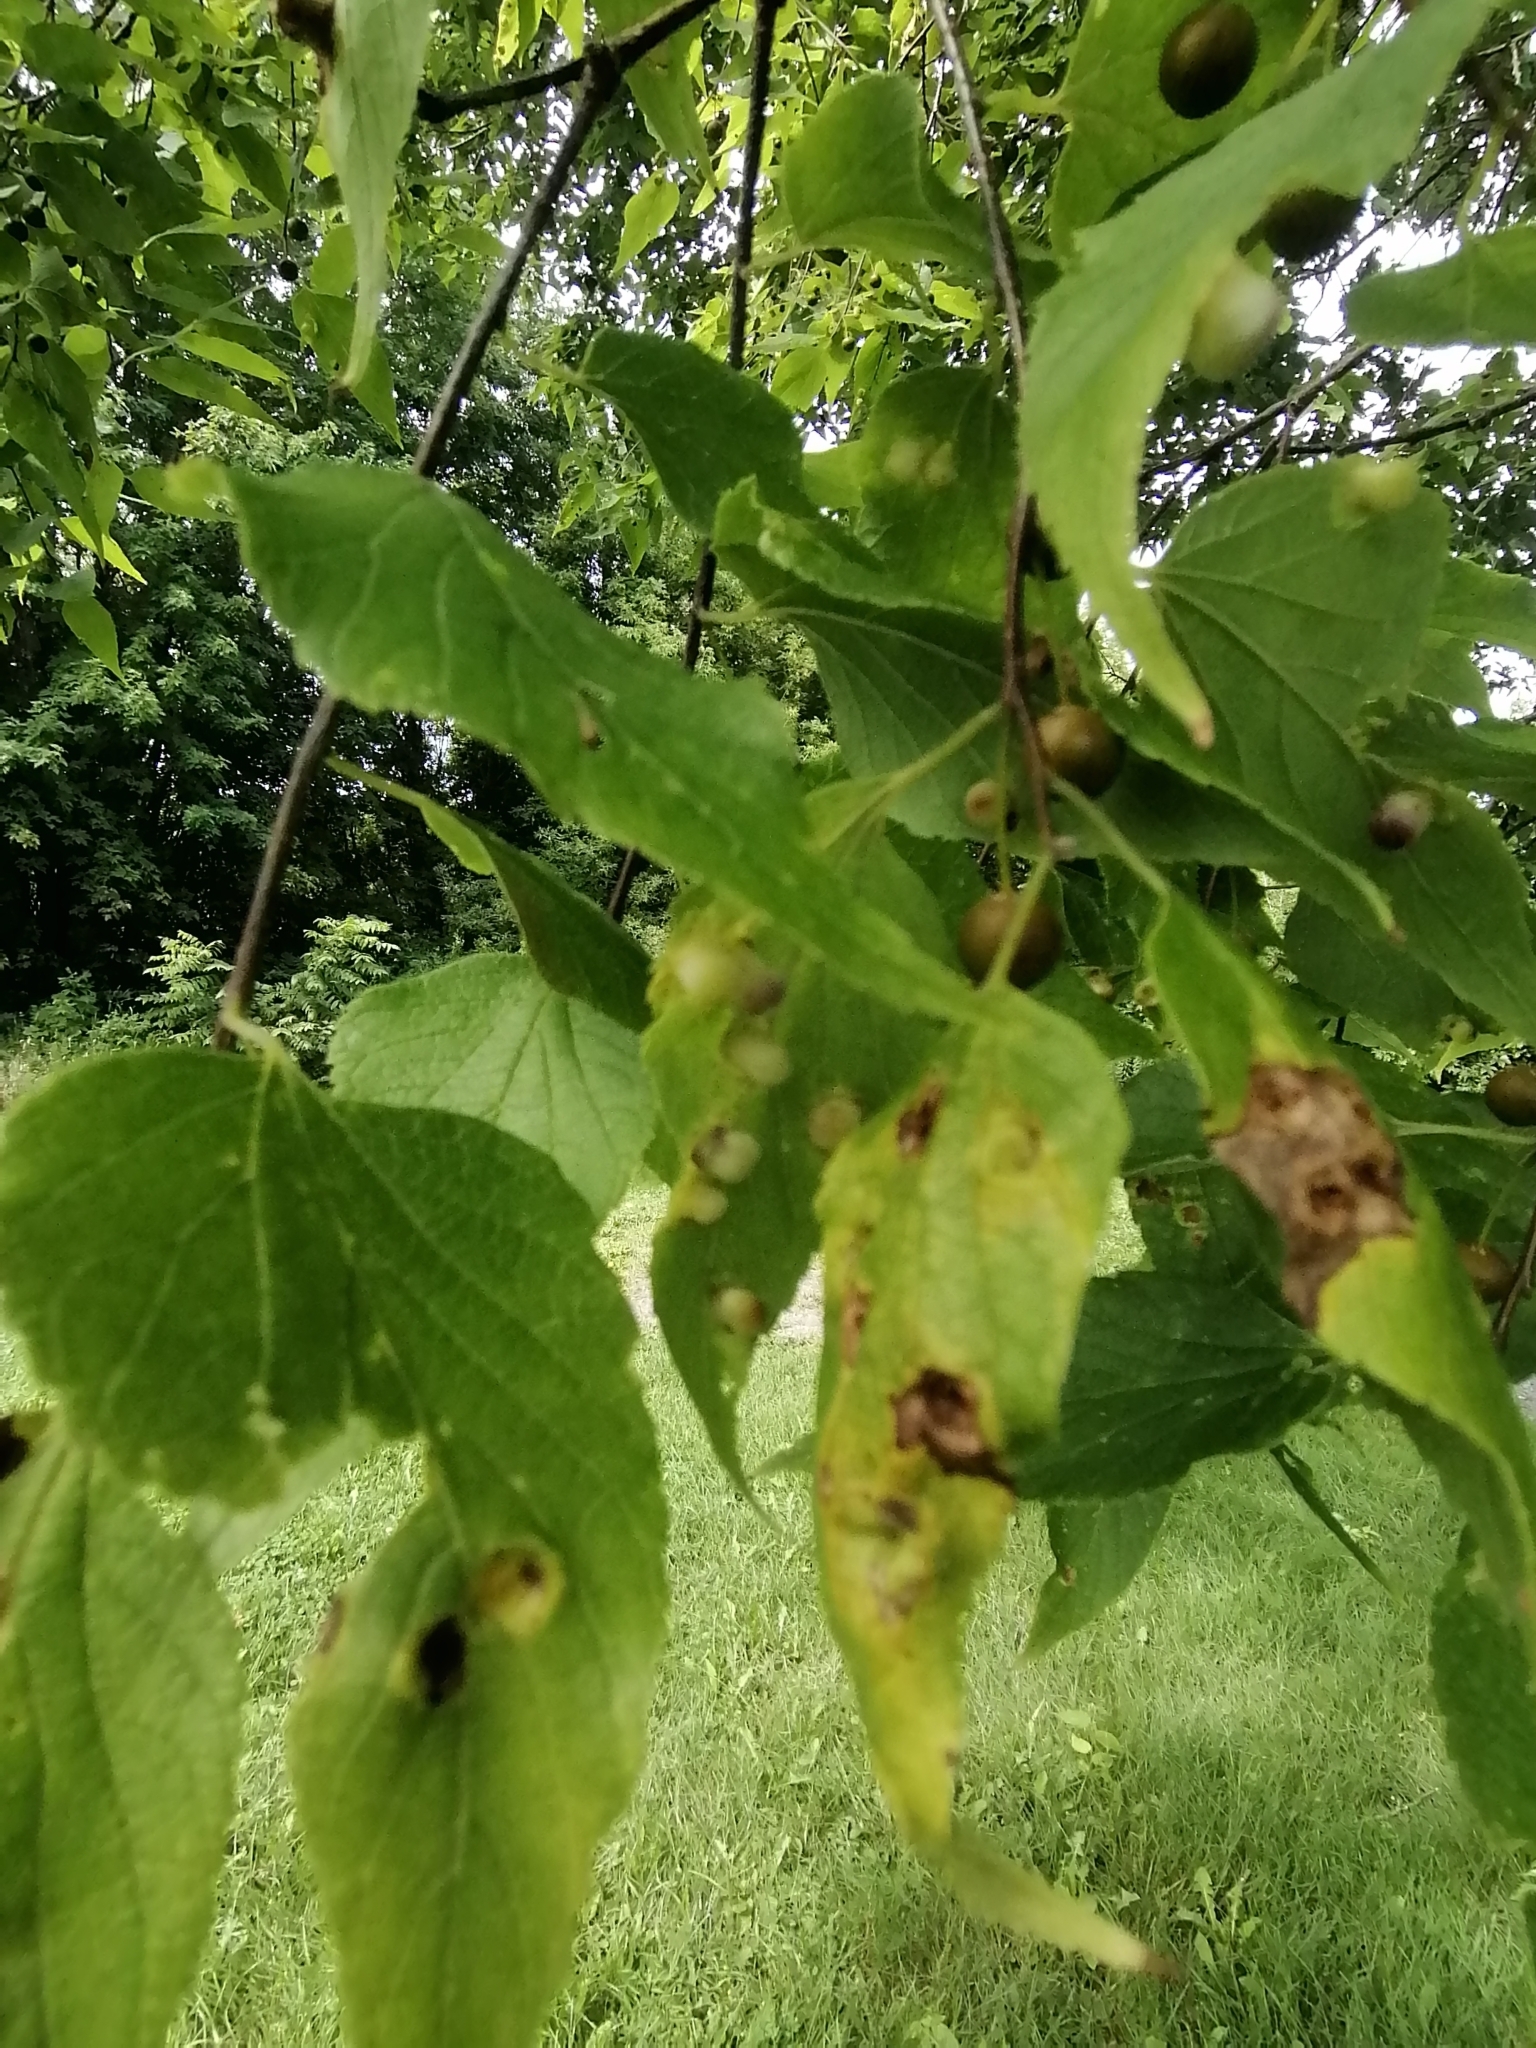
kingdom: Animalia
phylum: Arthropoda
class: Insecta
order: Hemiptera
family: Aphalaridae
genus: Pachypsylla
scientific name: Pachypsylla celtidismamma
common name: Hackberry nipplegall psyllid
